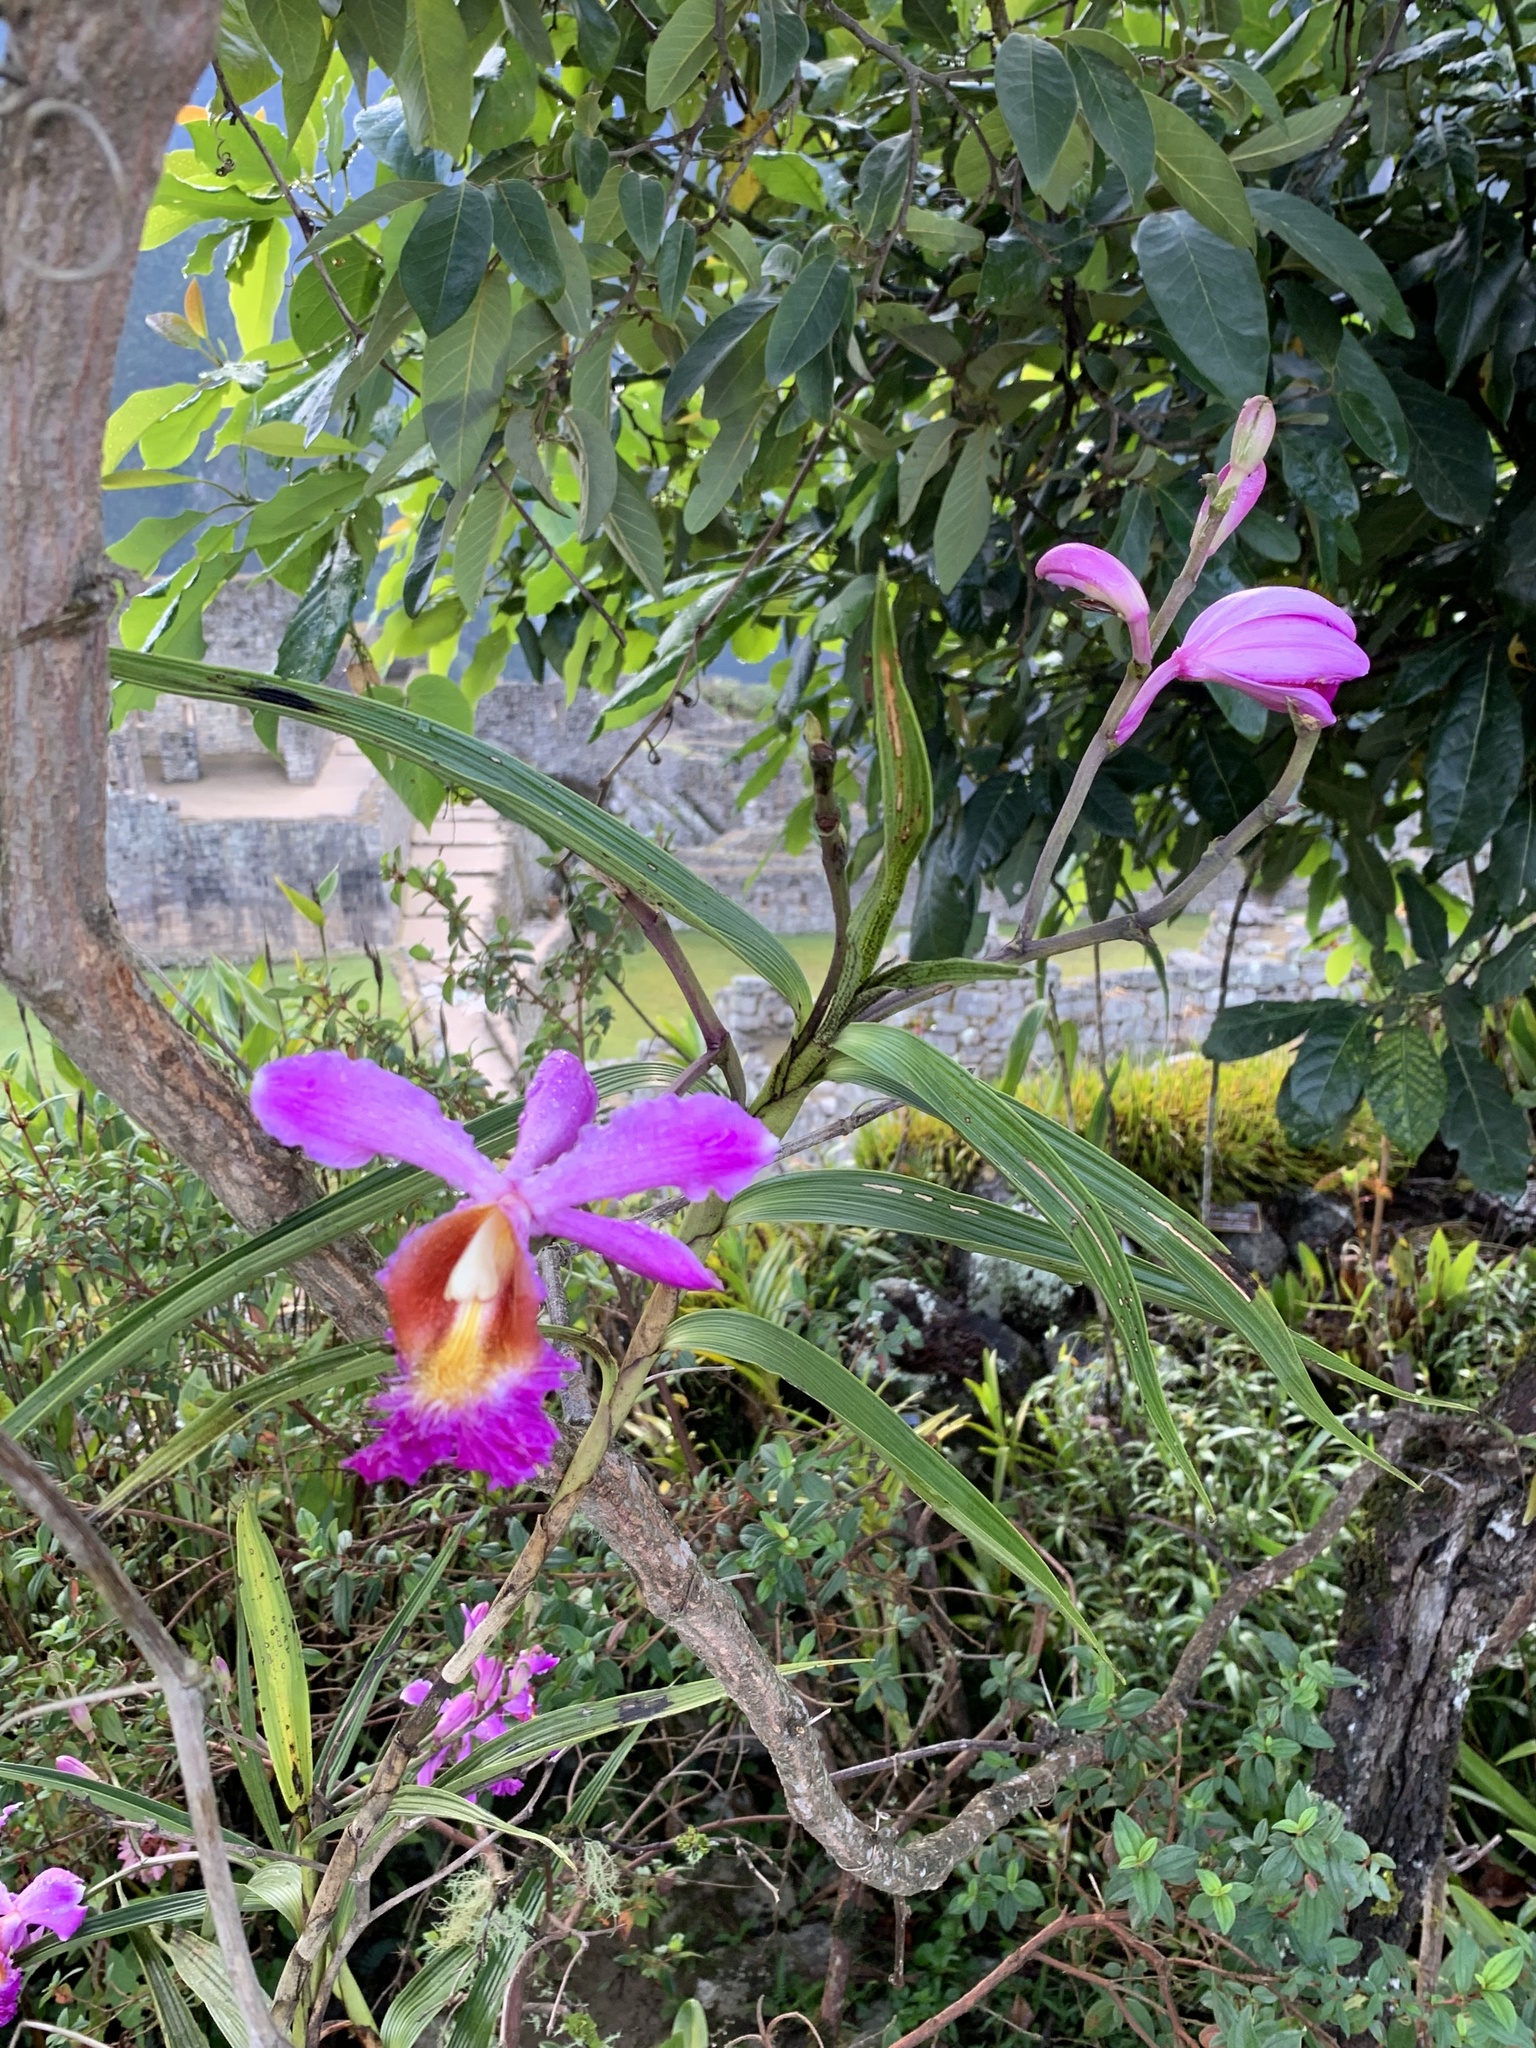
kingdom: Plantae
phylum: Tracheophyta
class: Liliopsida
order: Asparagales
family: Orchidaceae
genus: Sobralia
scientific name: Sobralia dichotoma
